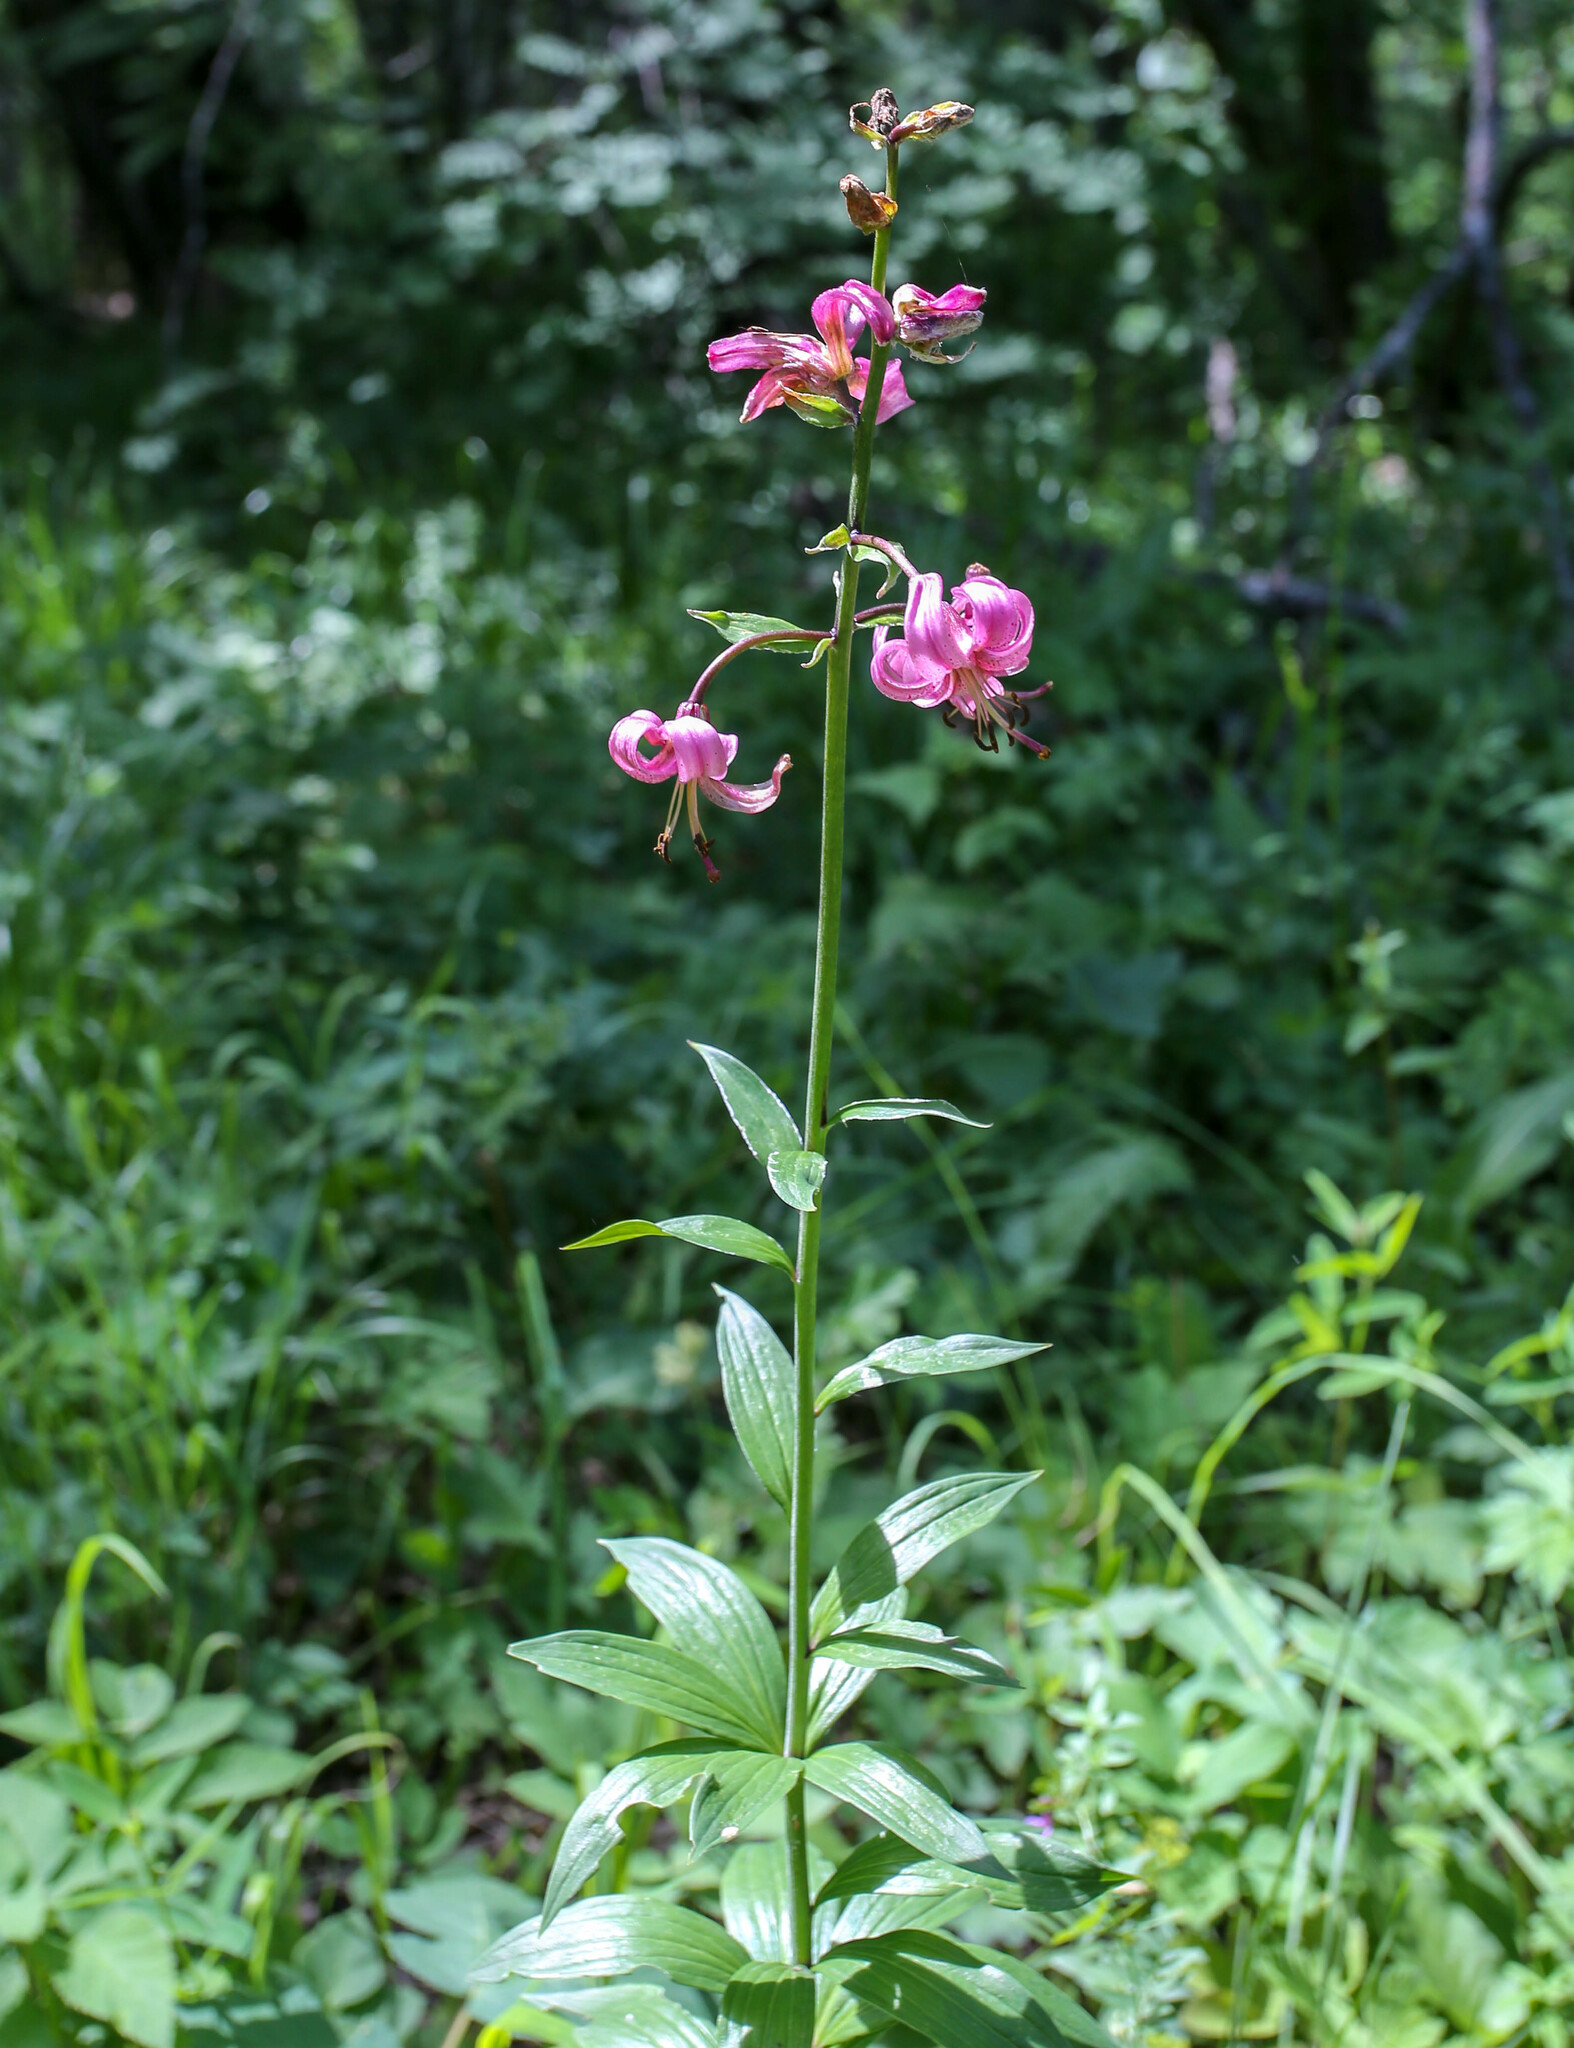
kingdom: Plantae
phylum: Tracheophyta
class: Liliopsida
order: Liliales
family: Liliaceae
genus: Lilium
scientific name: Lilium martagon
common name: Martagon lily
